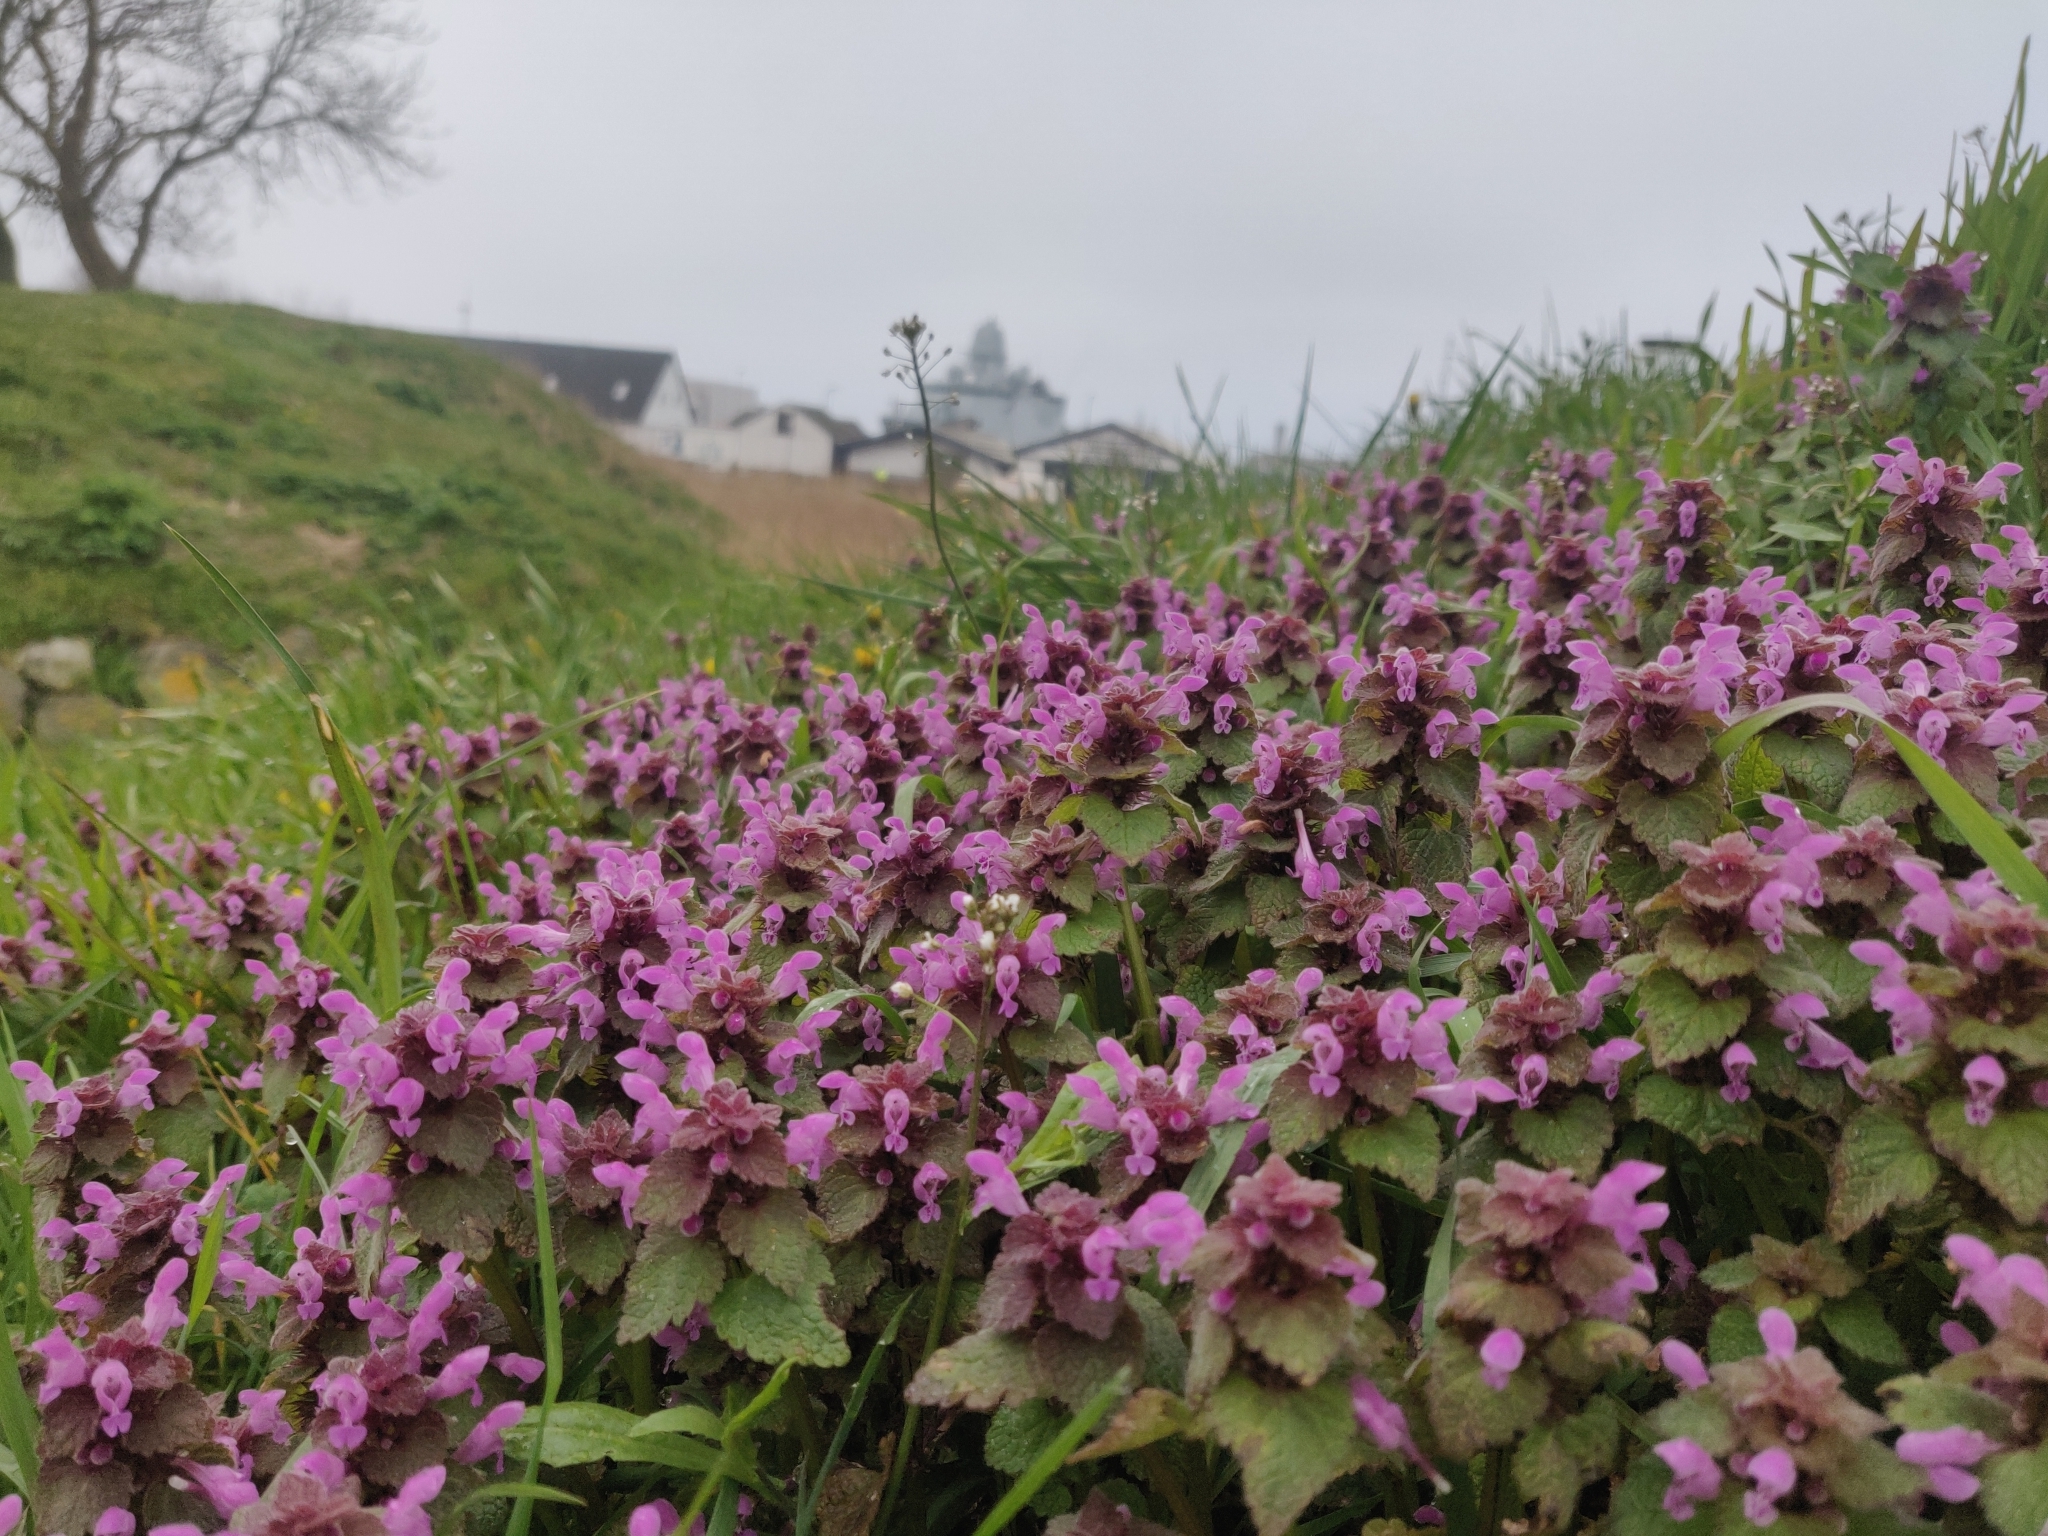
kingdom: Plantae
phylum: Tracheophyta
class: Magnoliopsida
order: Lamiales
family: Lamiaceae
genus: Lamium
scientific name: Lamium purpureum
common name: Red dead-nettle
